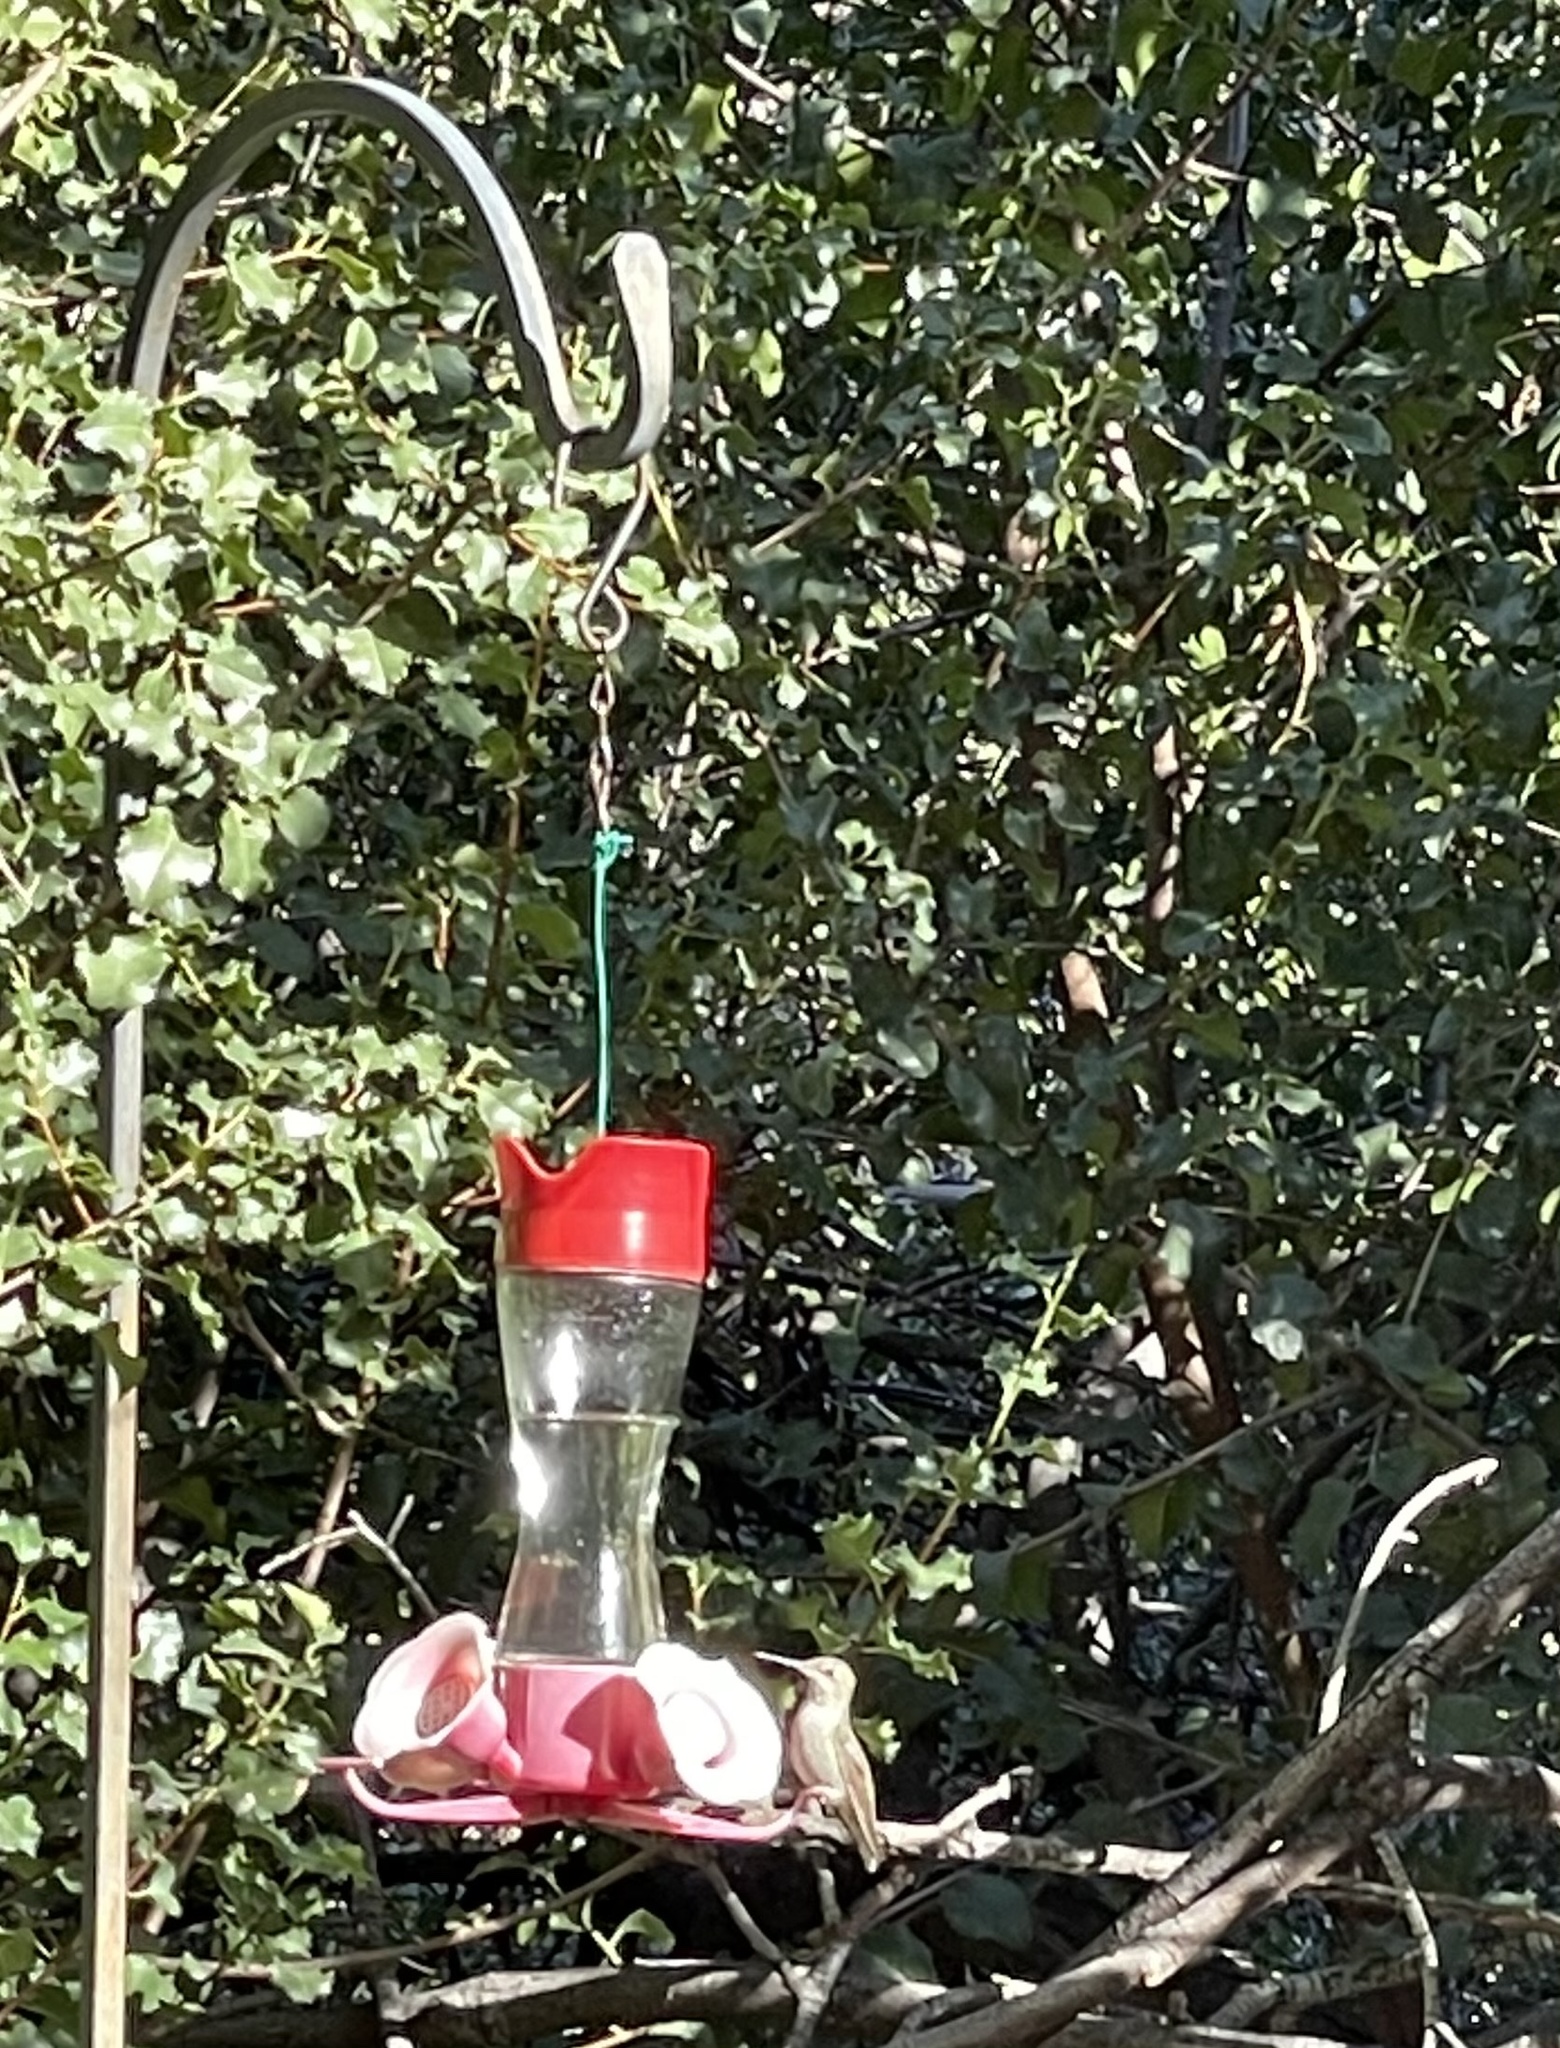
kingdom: Animalia
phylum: Chordata
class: Aves
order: Apodiformes
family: Trochilidae
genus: Calypte
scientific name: Calypte anna
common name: Anna's hummingbird
